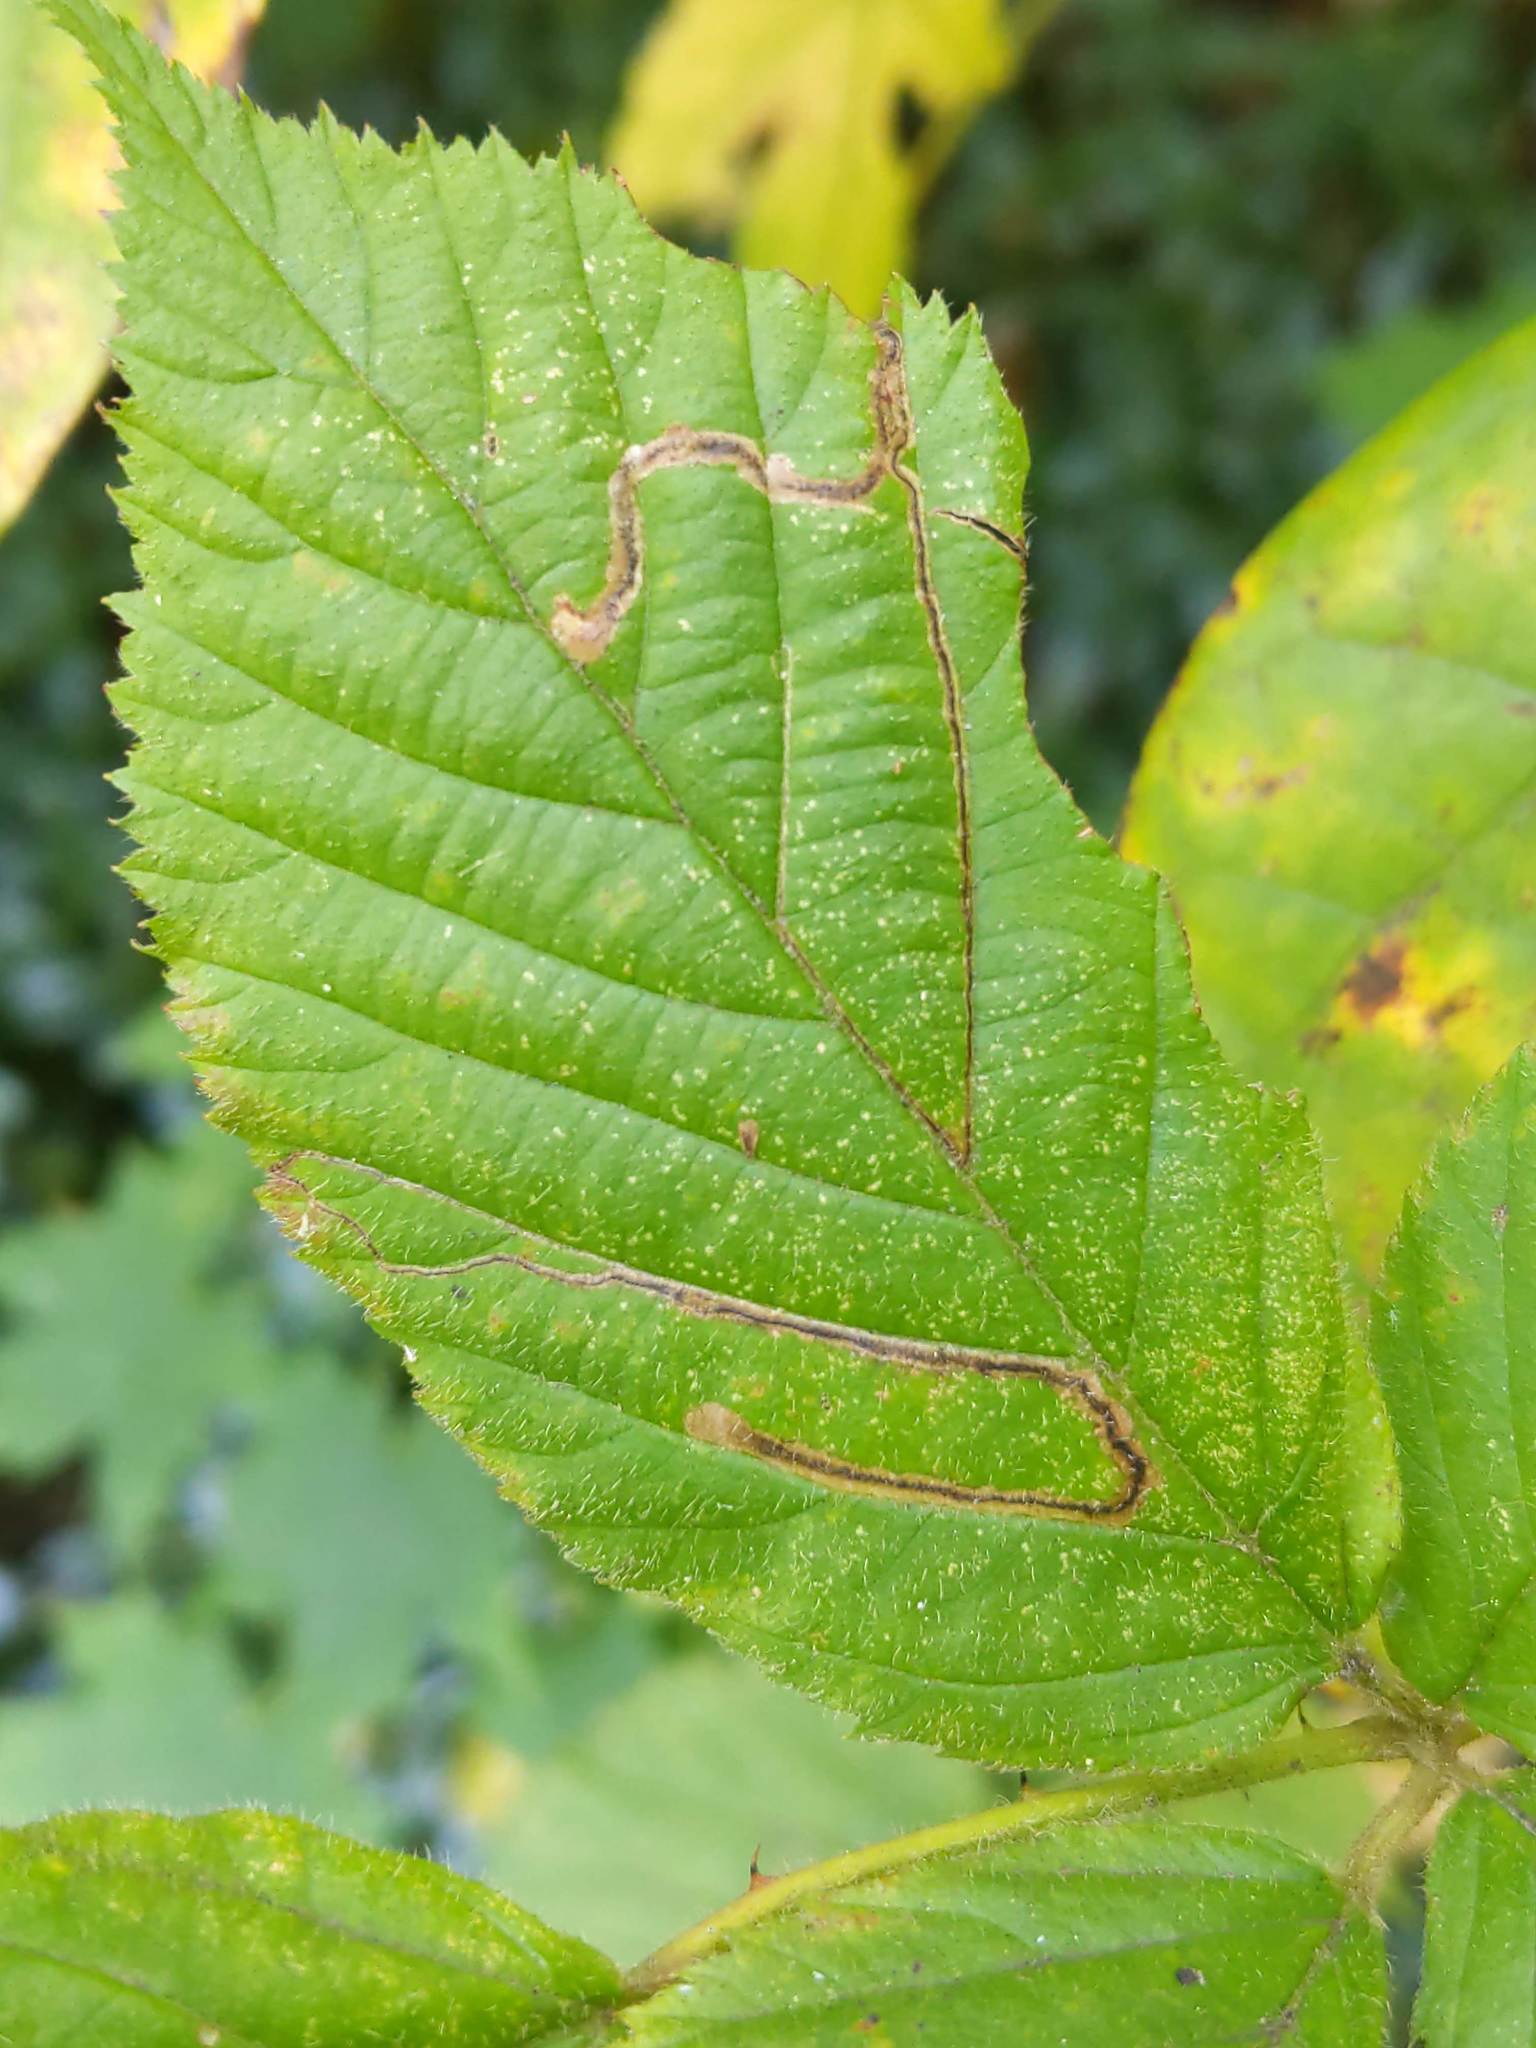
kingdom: Animalia
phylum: Arthropoda
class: Insecta
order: Lepidoptera
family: Nepticulidae
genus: Stigmella
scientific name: Stigmella villosella
